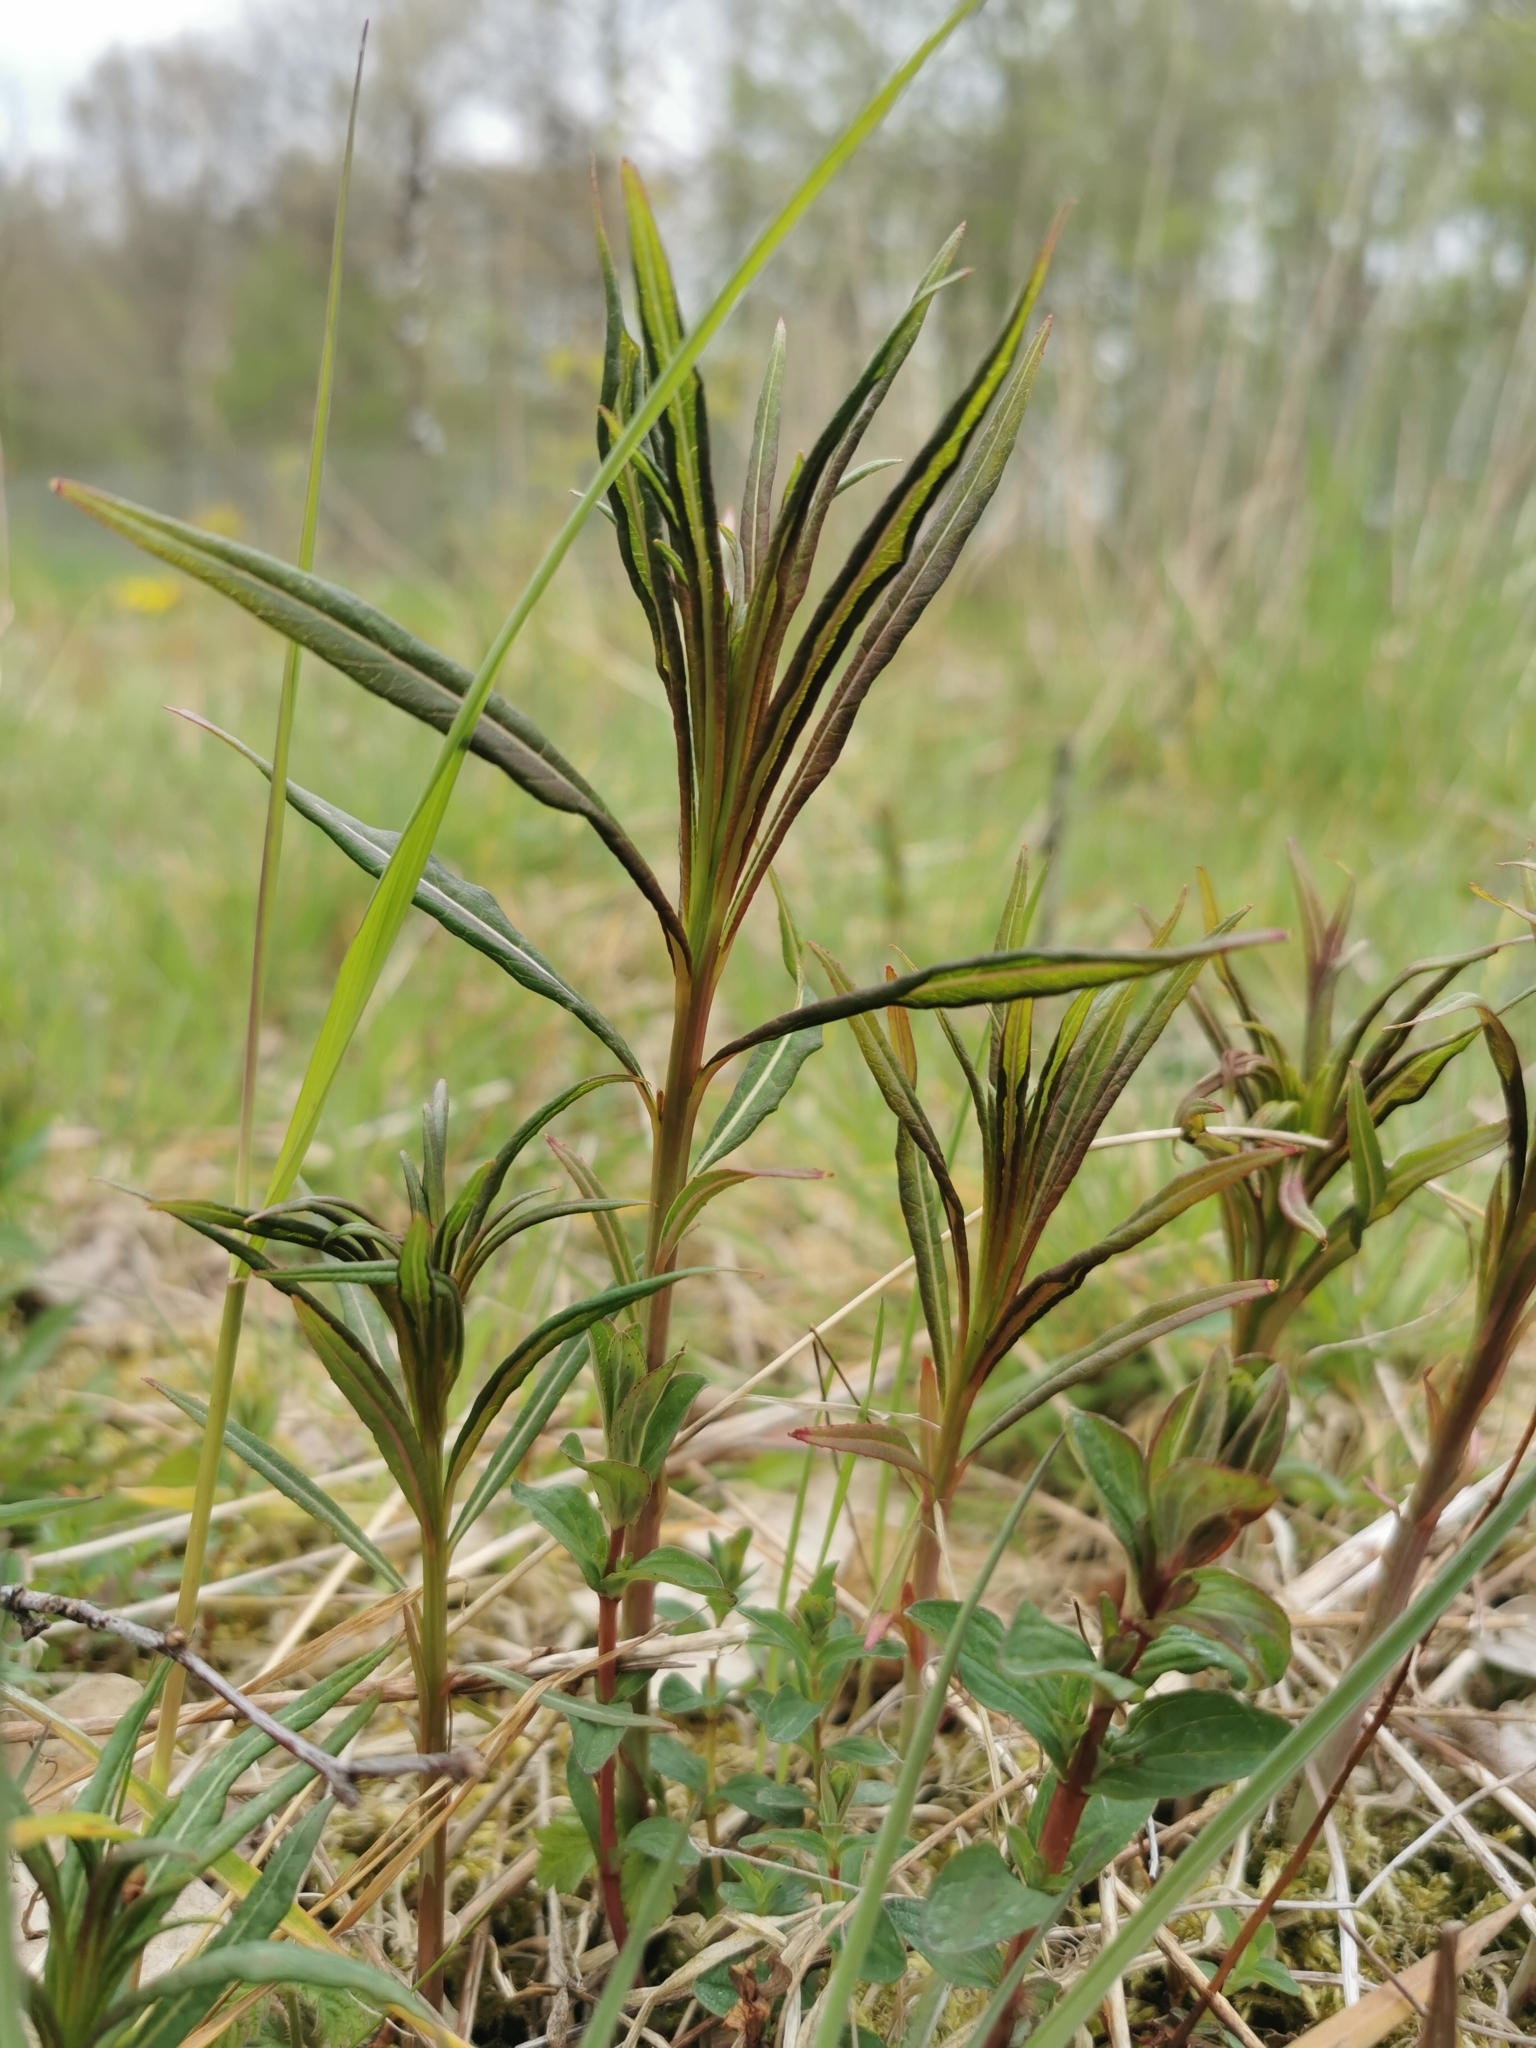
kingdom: Plantae
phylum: Tracheophyta
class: Magnoliopsida
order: Myrtales
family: Onagraceae
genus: Chamaenerion
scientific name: Chamaenerion angustifolium
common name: Fireweed
